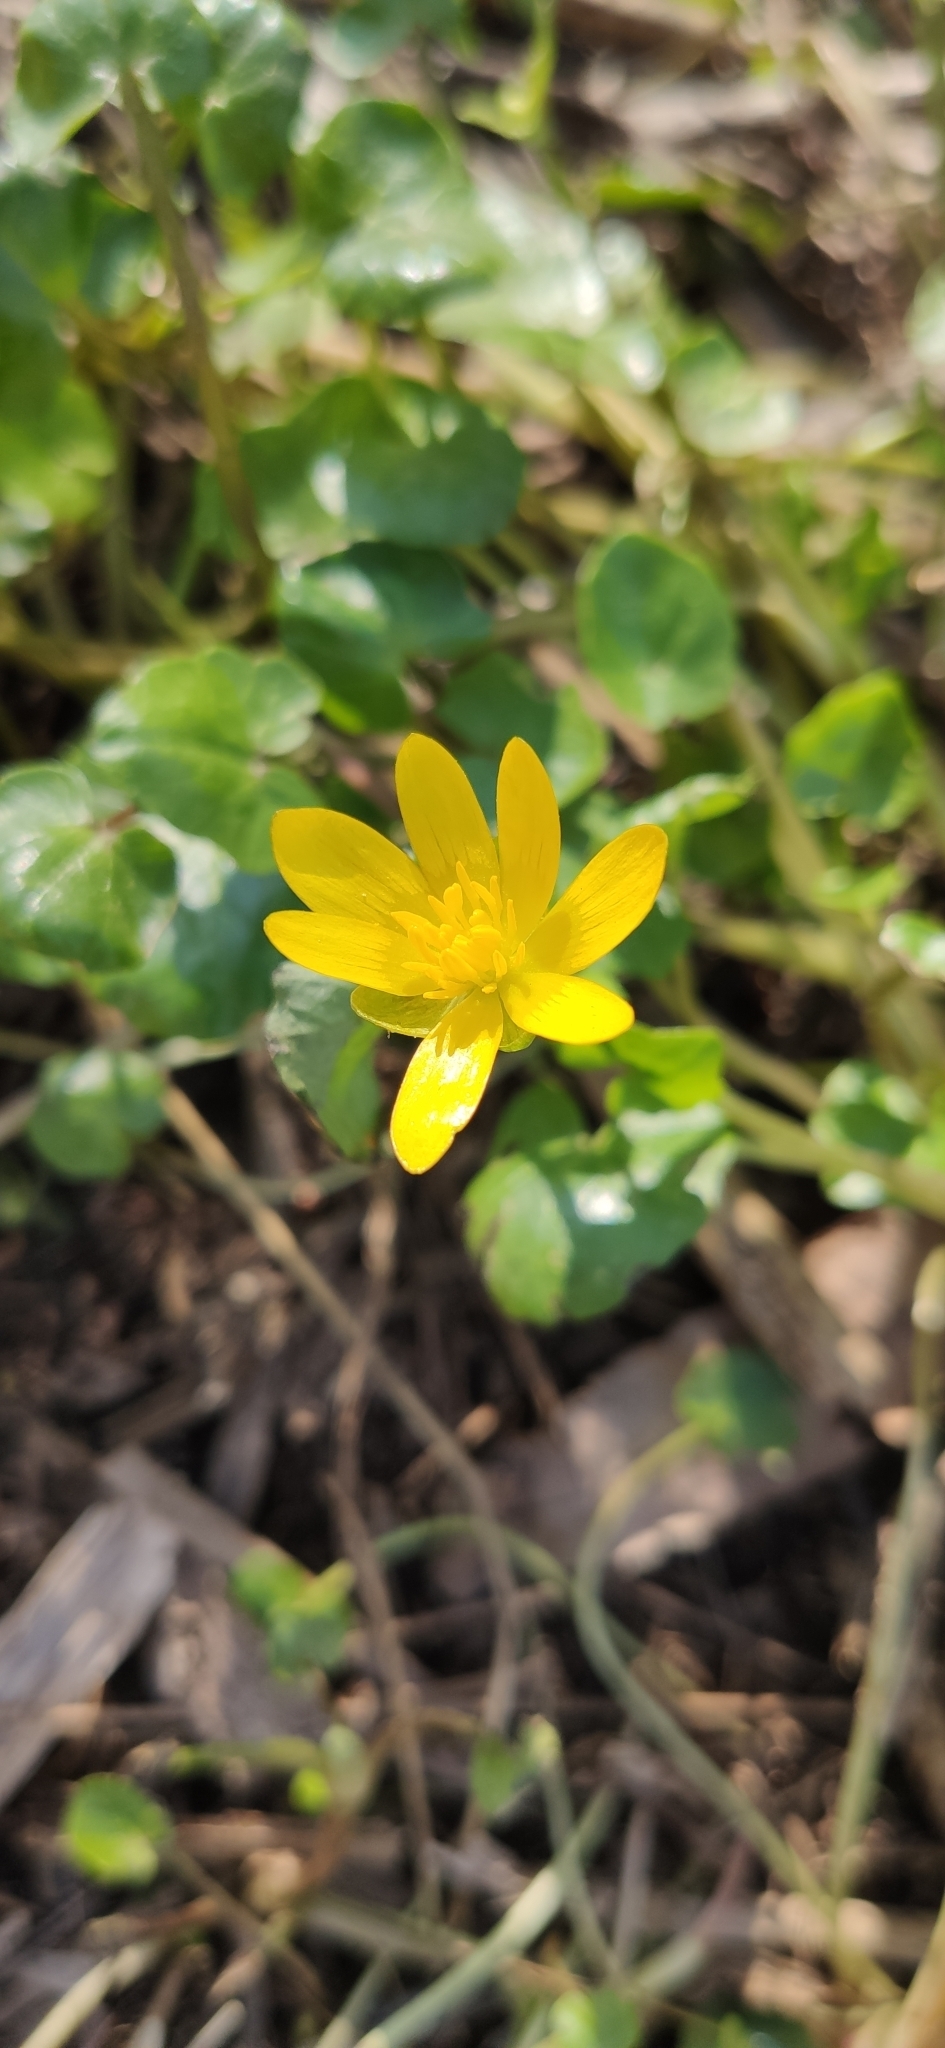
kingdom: Plantae
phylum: Tracheophyta
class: Magnoliopsida
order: Ranunculales
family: Ranunculaceae
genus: Ficaria
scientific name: Ficaria verna
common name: Lesser celandine
